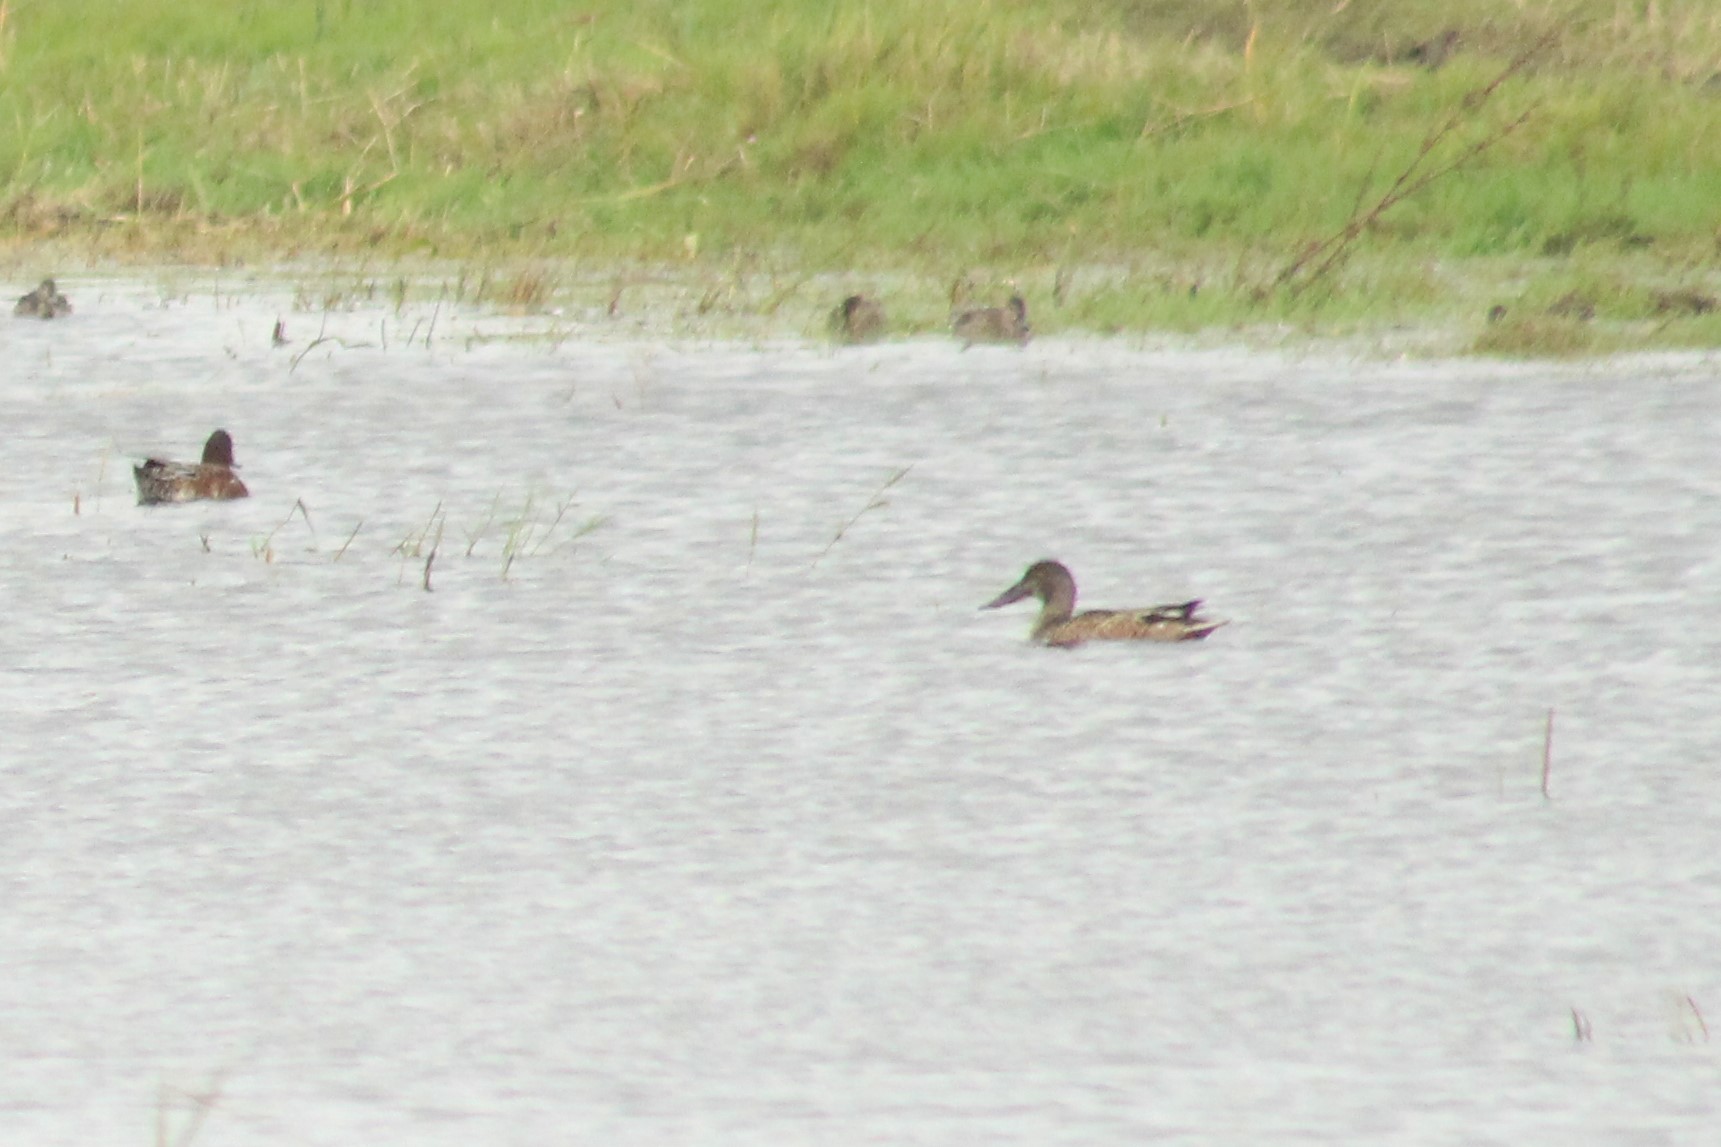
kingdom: Animalia
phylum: Chordata
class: Aves
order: Anseriformes
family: Anatidae
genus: Spatula
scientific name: Spatula clypeata
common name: Northern shoveler
